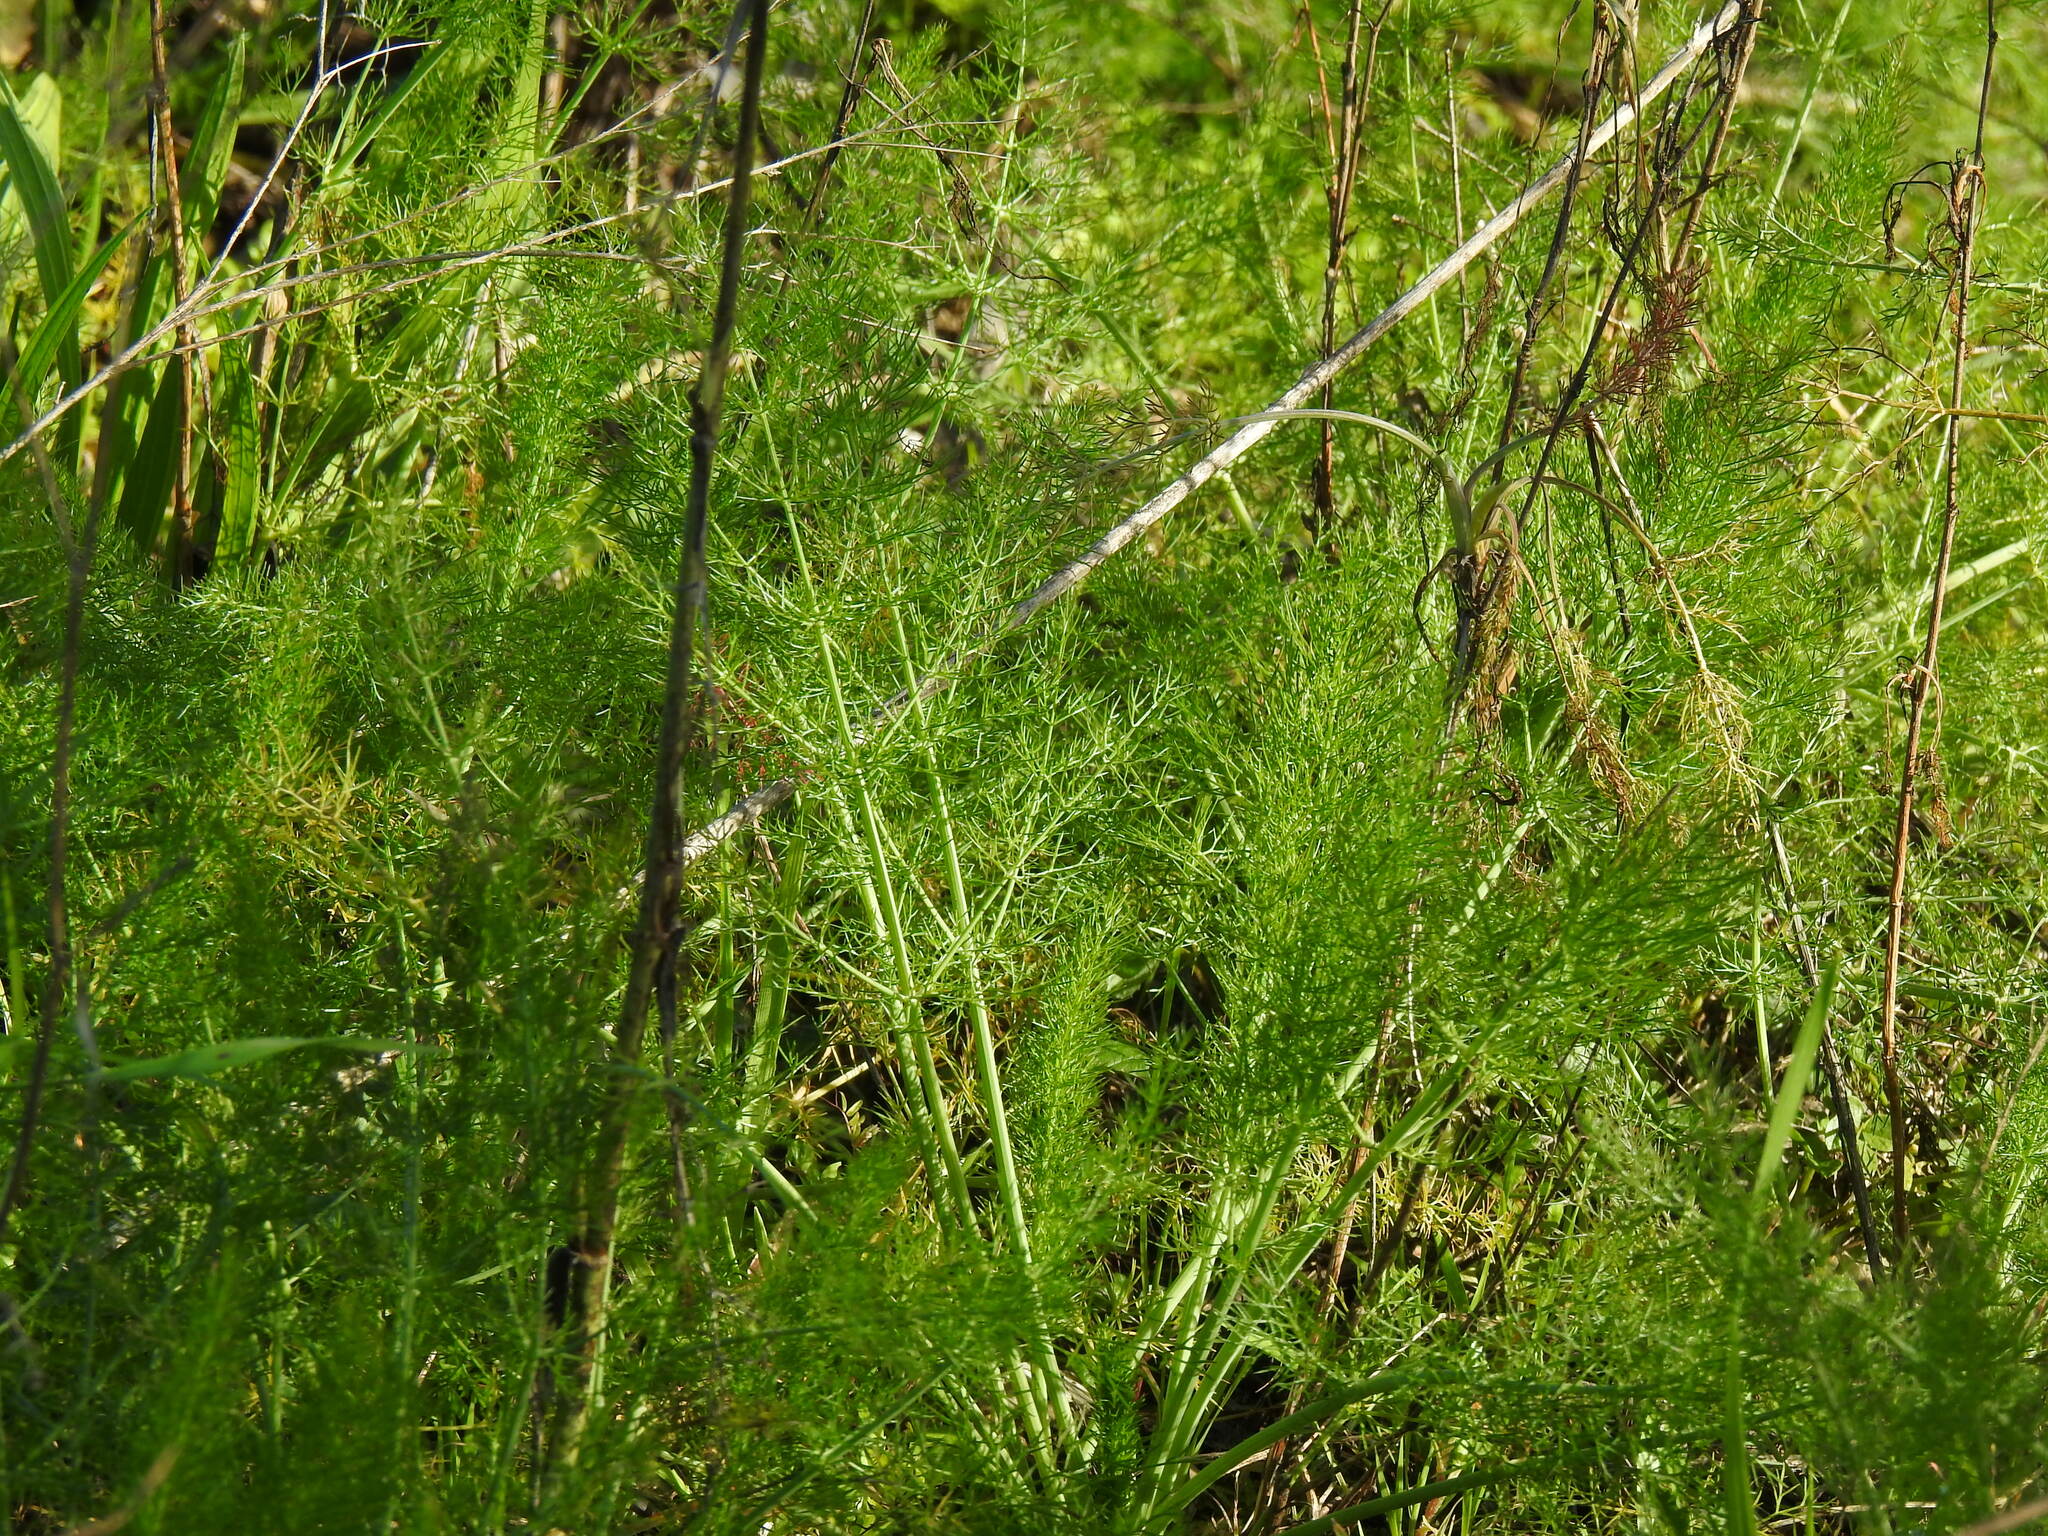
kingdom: Plantae
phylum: Tracheophyta
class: Magnoliopsida
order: Apiales
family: Apiaceae
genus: Foeniculum
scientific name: Foeniculum vulgare
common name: Fennel
